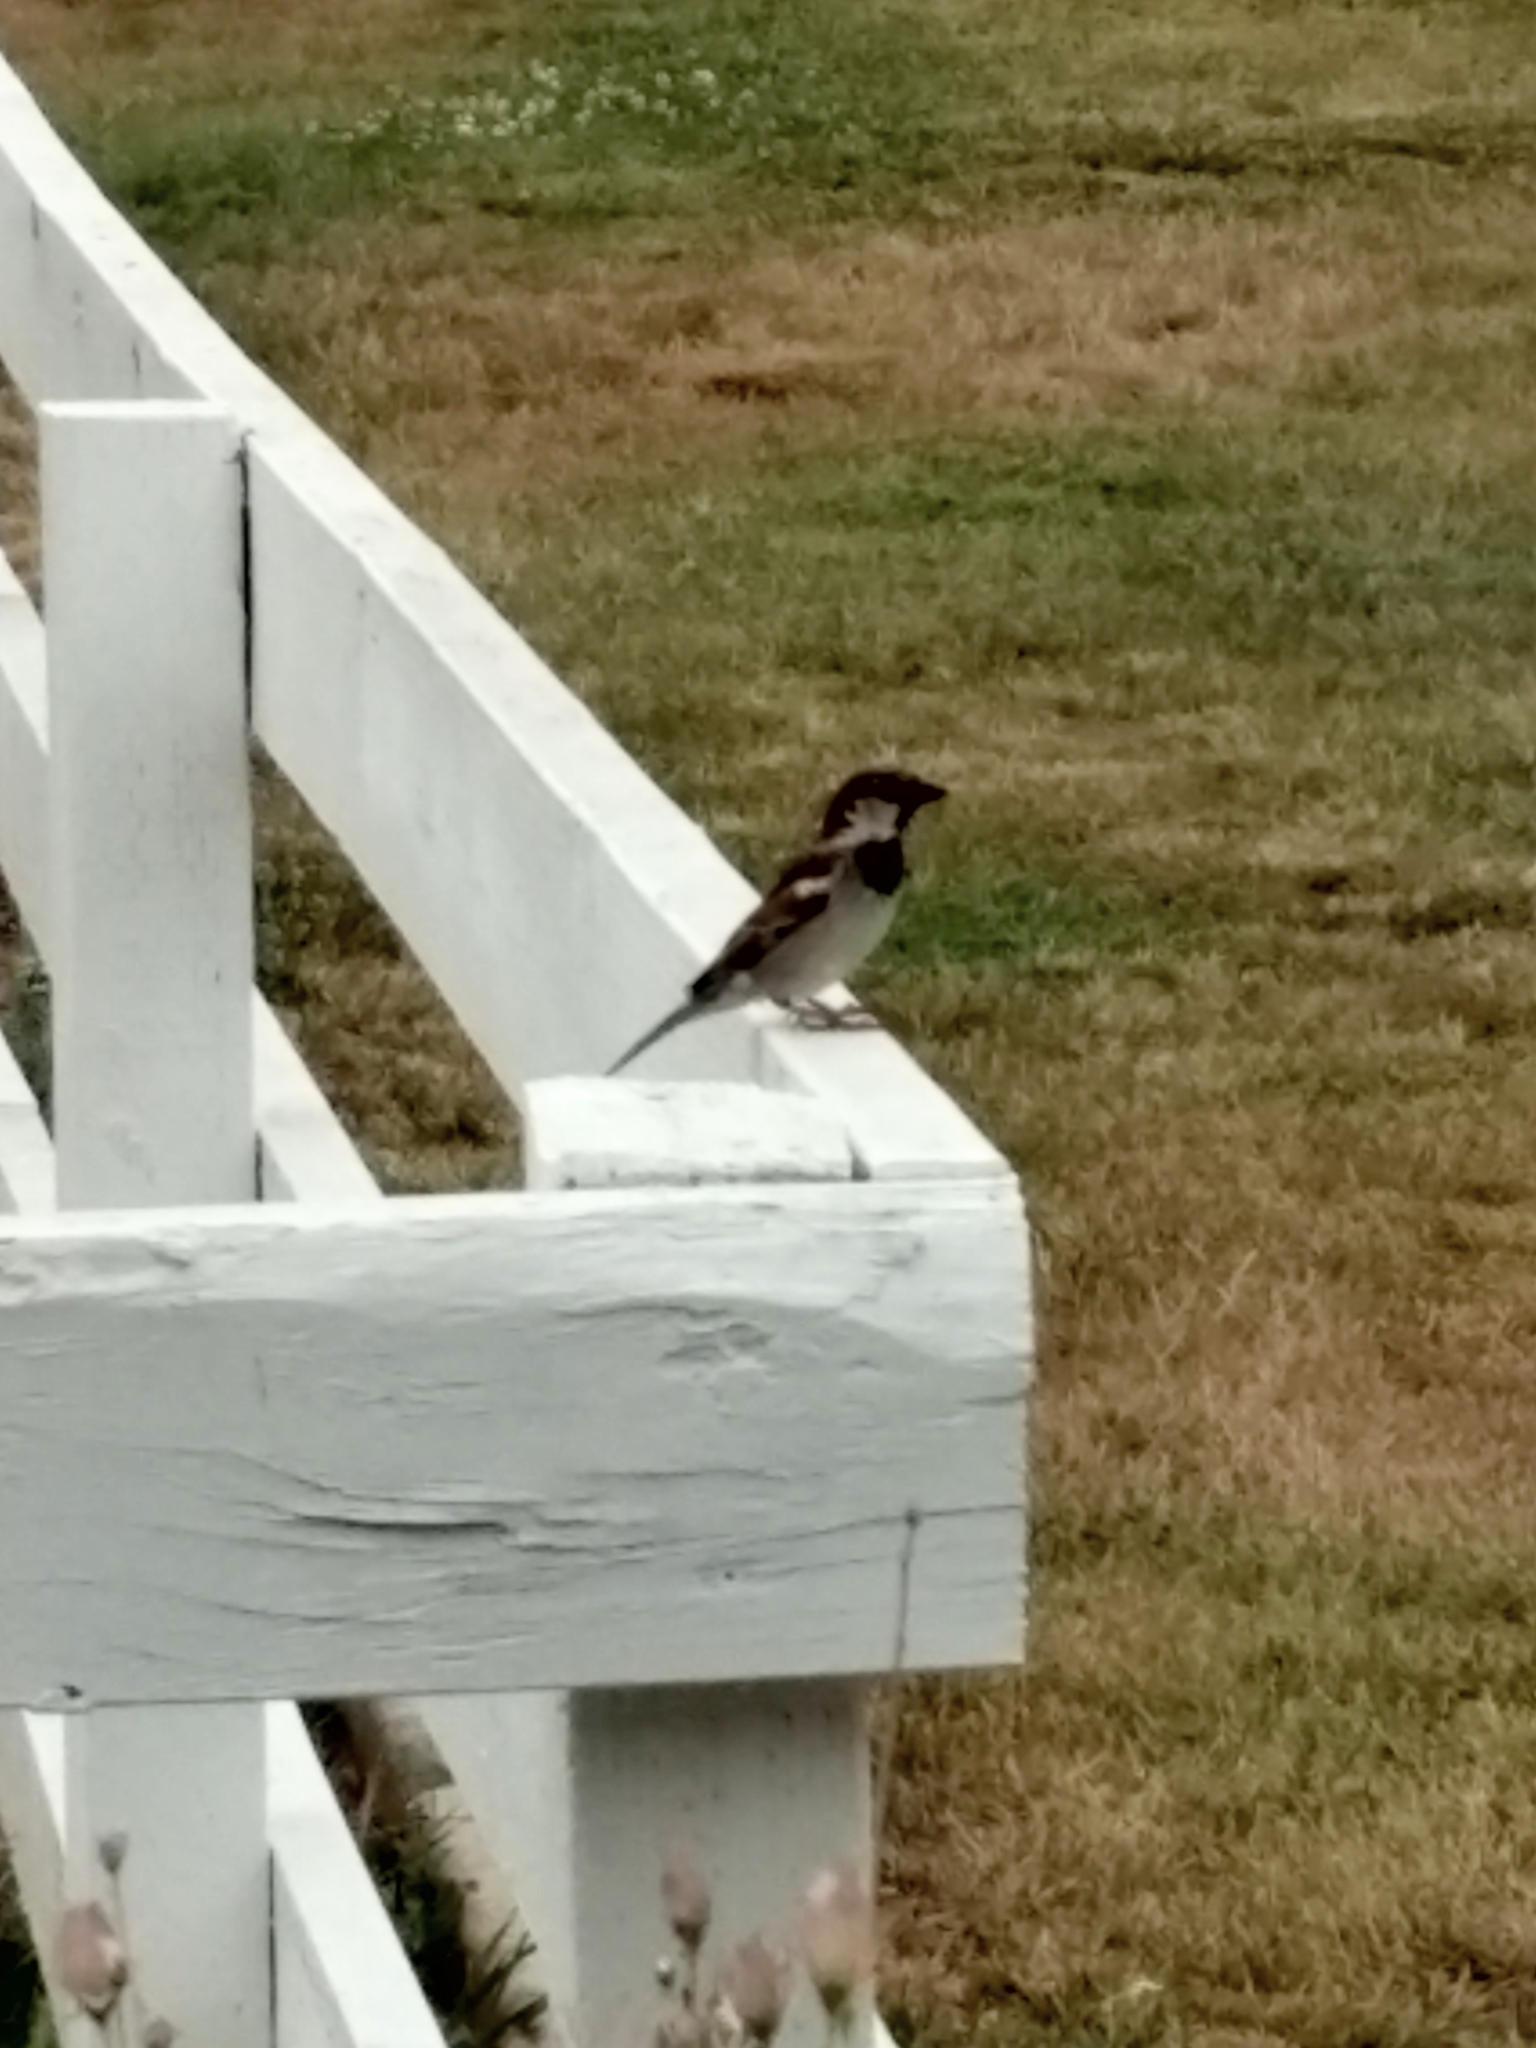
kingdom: Animalia
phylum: Chordata
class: Aves
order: Passeriformes
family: Passeridae
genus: Passer
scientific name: Passer domesticus
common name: House sparrow
